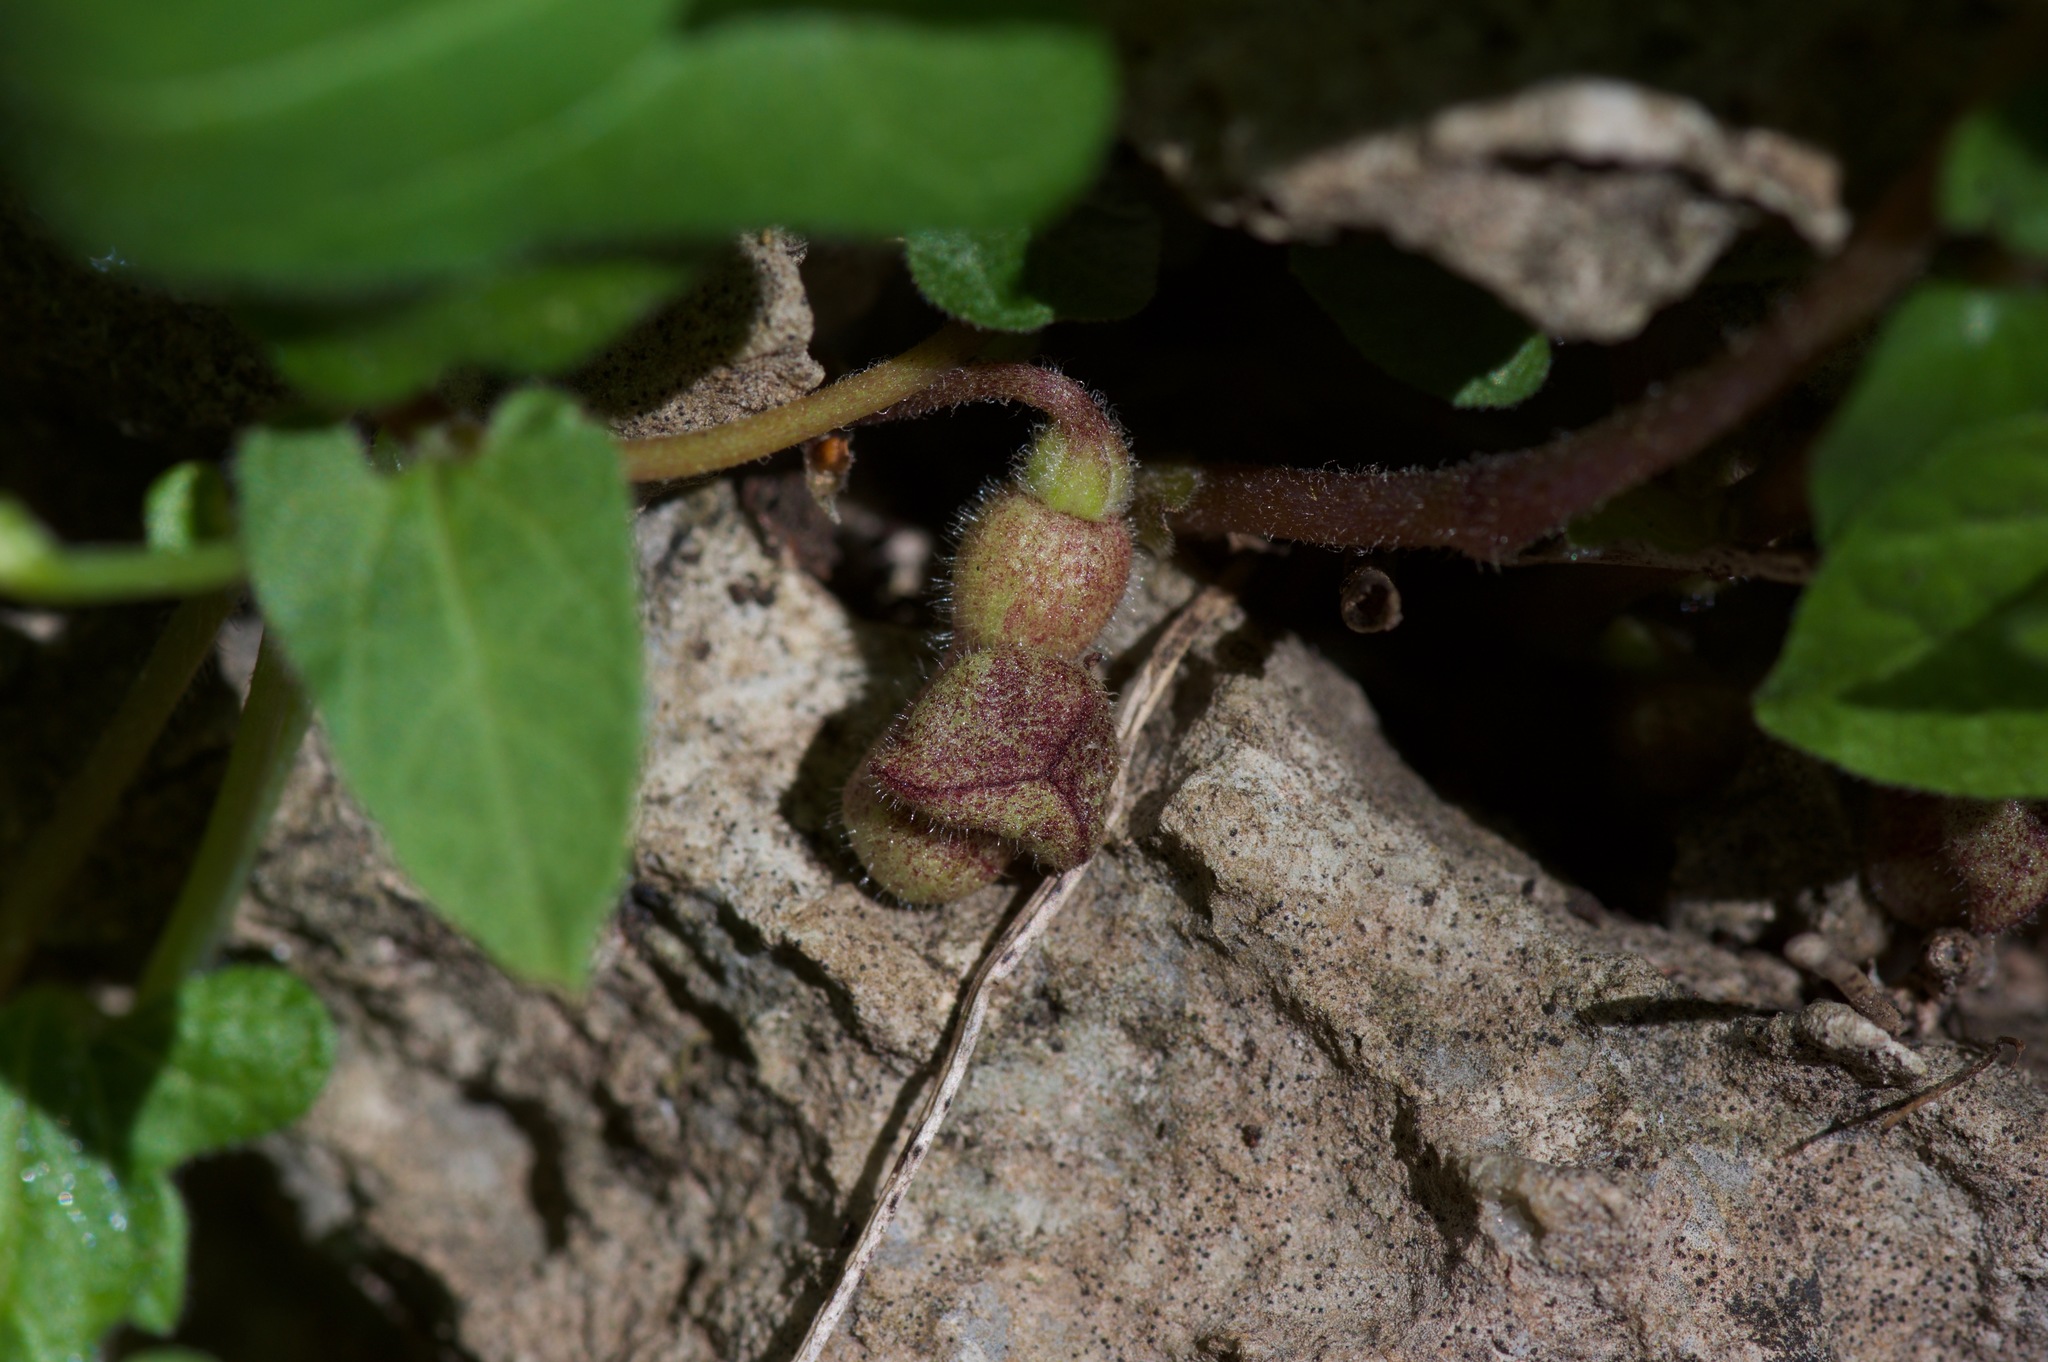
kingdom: Plantae
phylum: Tracheophyta
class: Magnoliopsida
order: Piperales
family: Aristolochiaceae
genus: Endodeca
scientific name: Endodeca serpentaria
